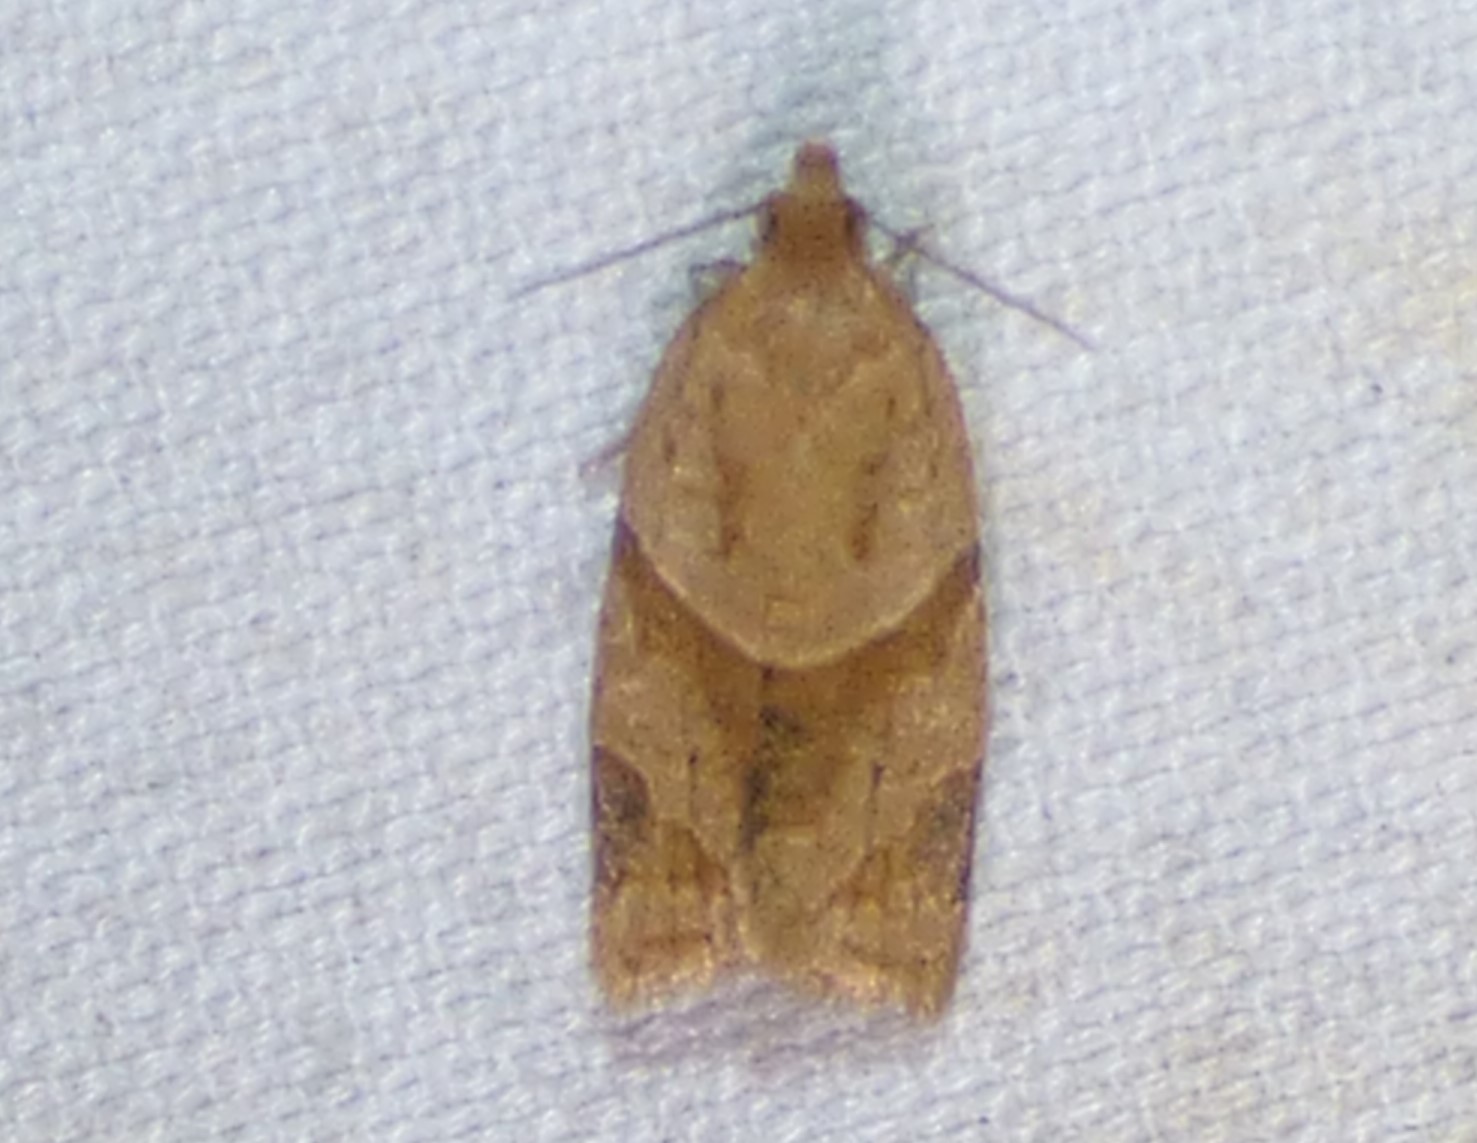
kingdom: Animalia
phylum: Arthropoda
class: Insecta
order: Lepidoptera
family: Tortricidae
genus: Clepsis
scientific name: Clepsis peritana
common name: Garden tortrix
